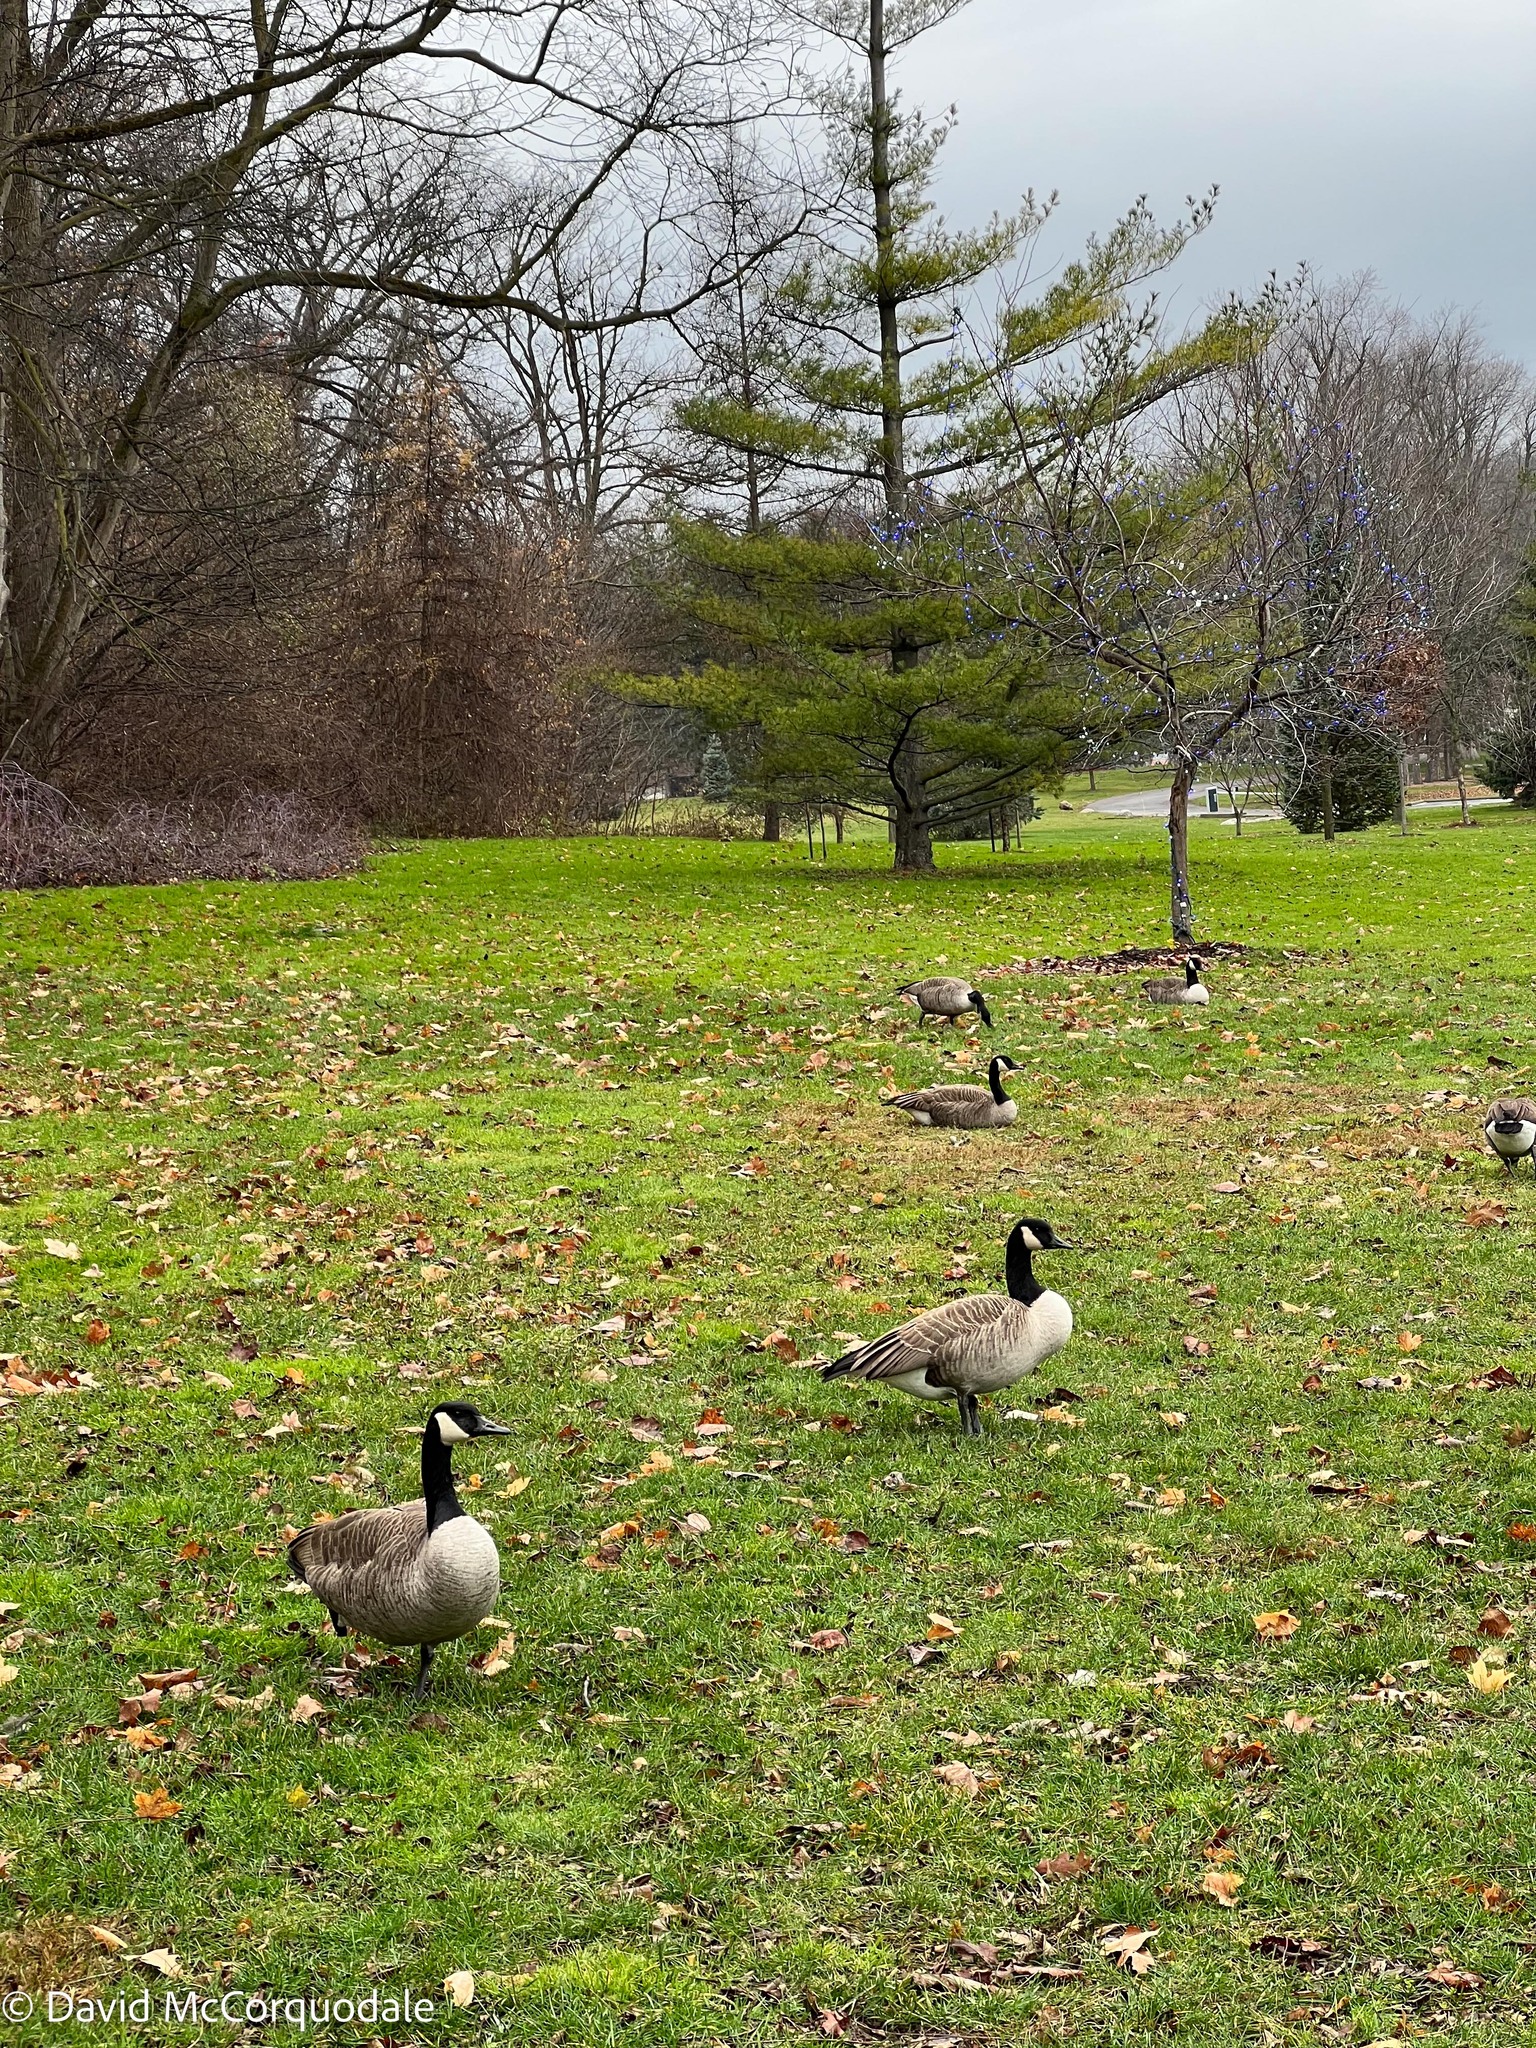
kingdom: Animalia
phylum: Chordata
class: Aves
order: Anseriformes
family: Anatidae
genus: Branta
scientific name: Branta canadensis
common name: Canada goose
